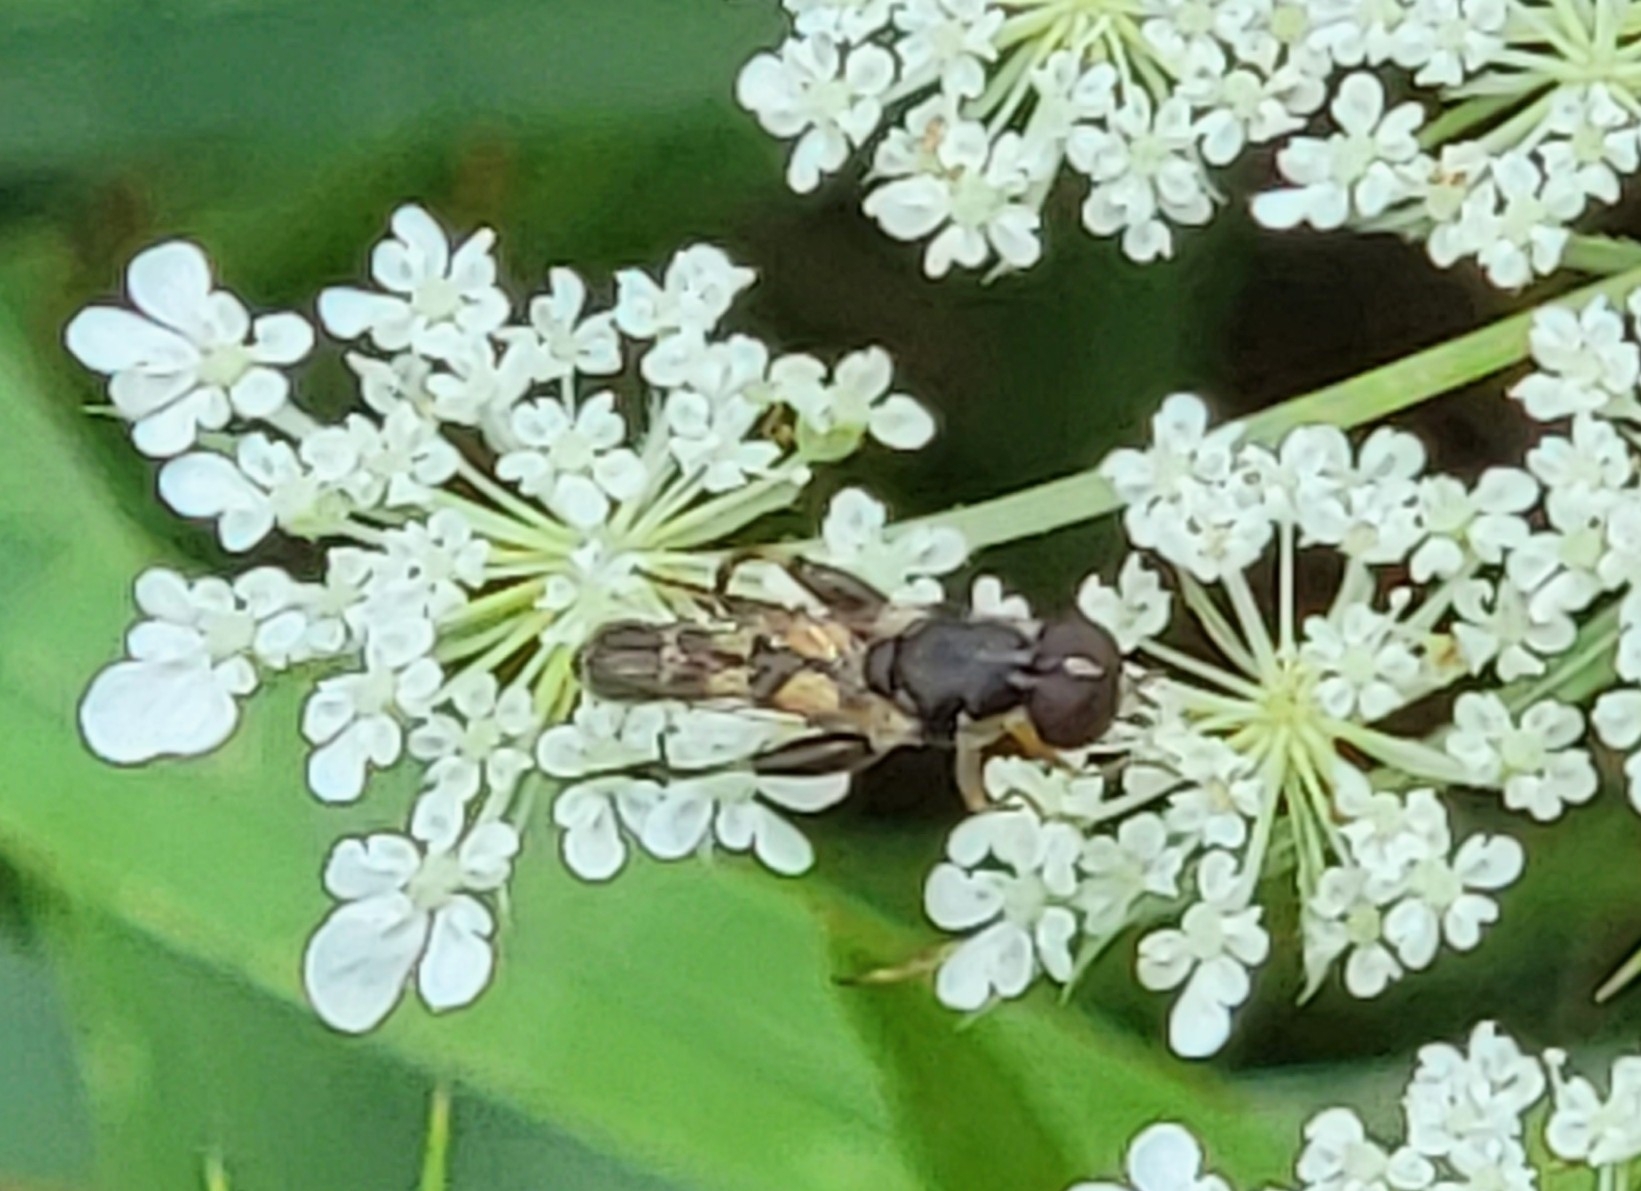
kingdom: Animalia
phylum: Arthropoda
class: Insecta
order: Diptera
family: Syrphidae
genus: Syritta
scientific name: Syritta pipiens
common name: Hover fly
